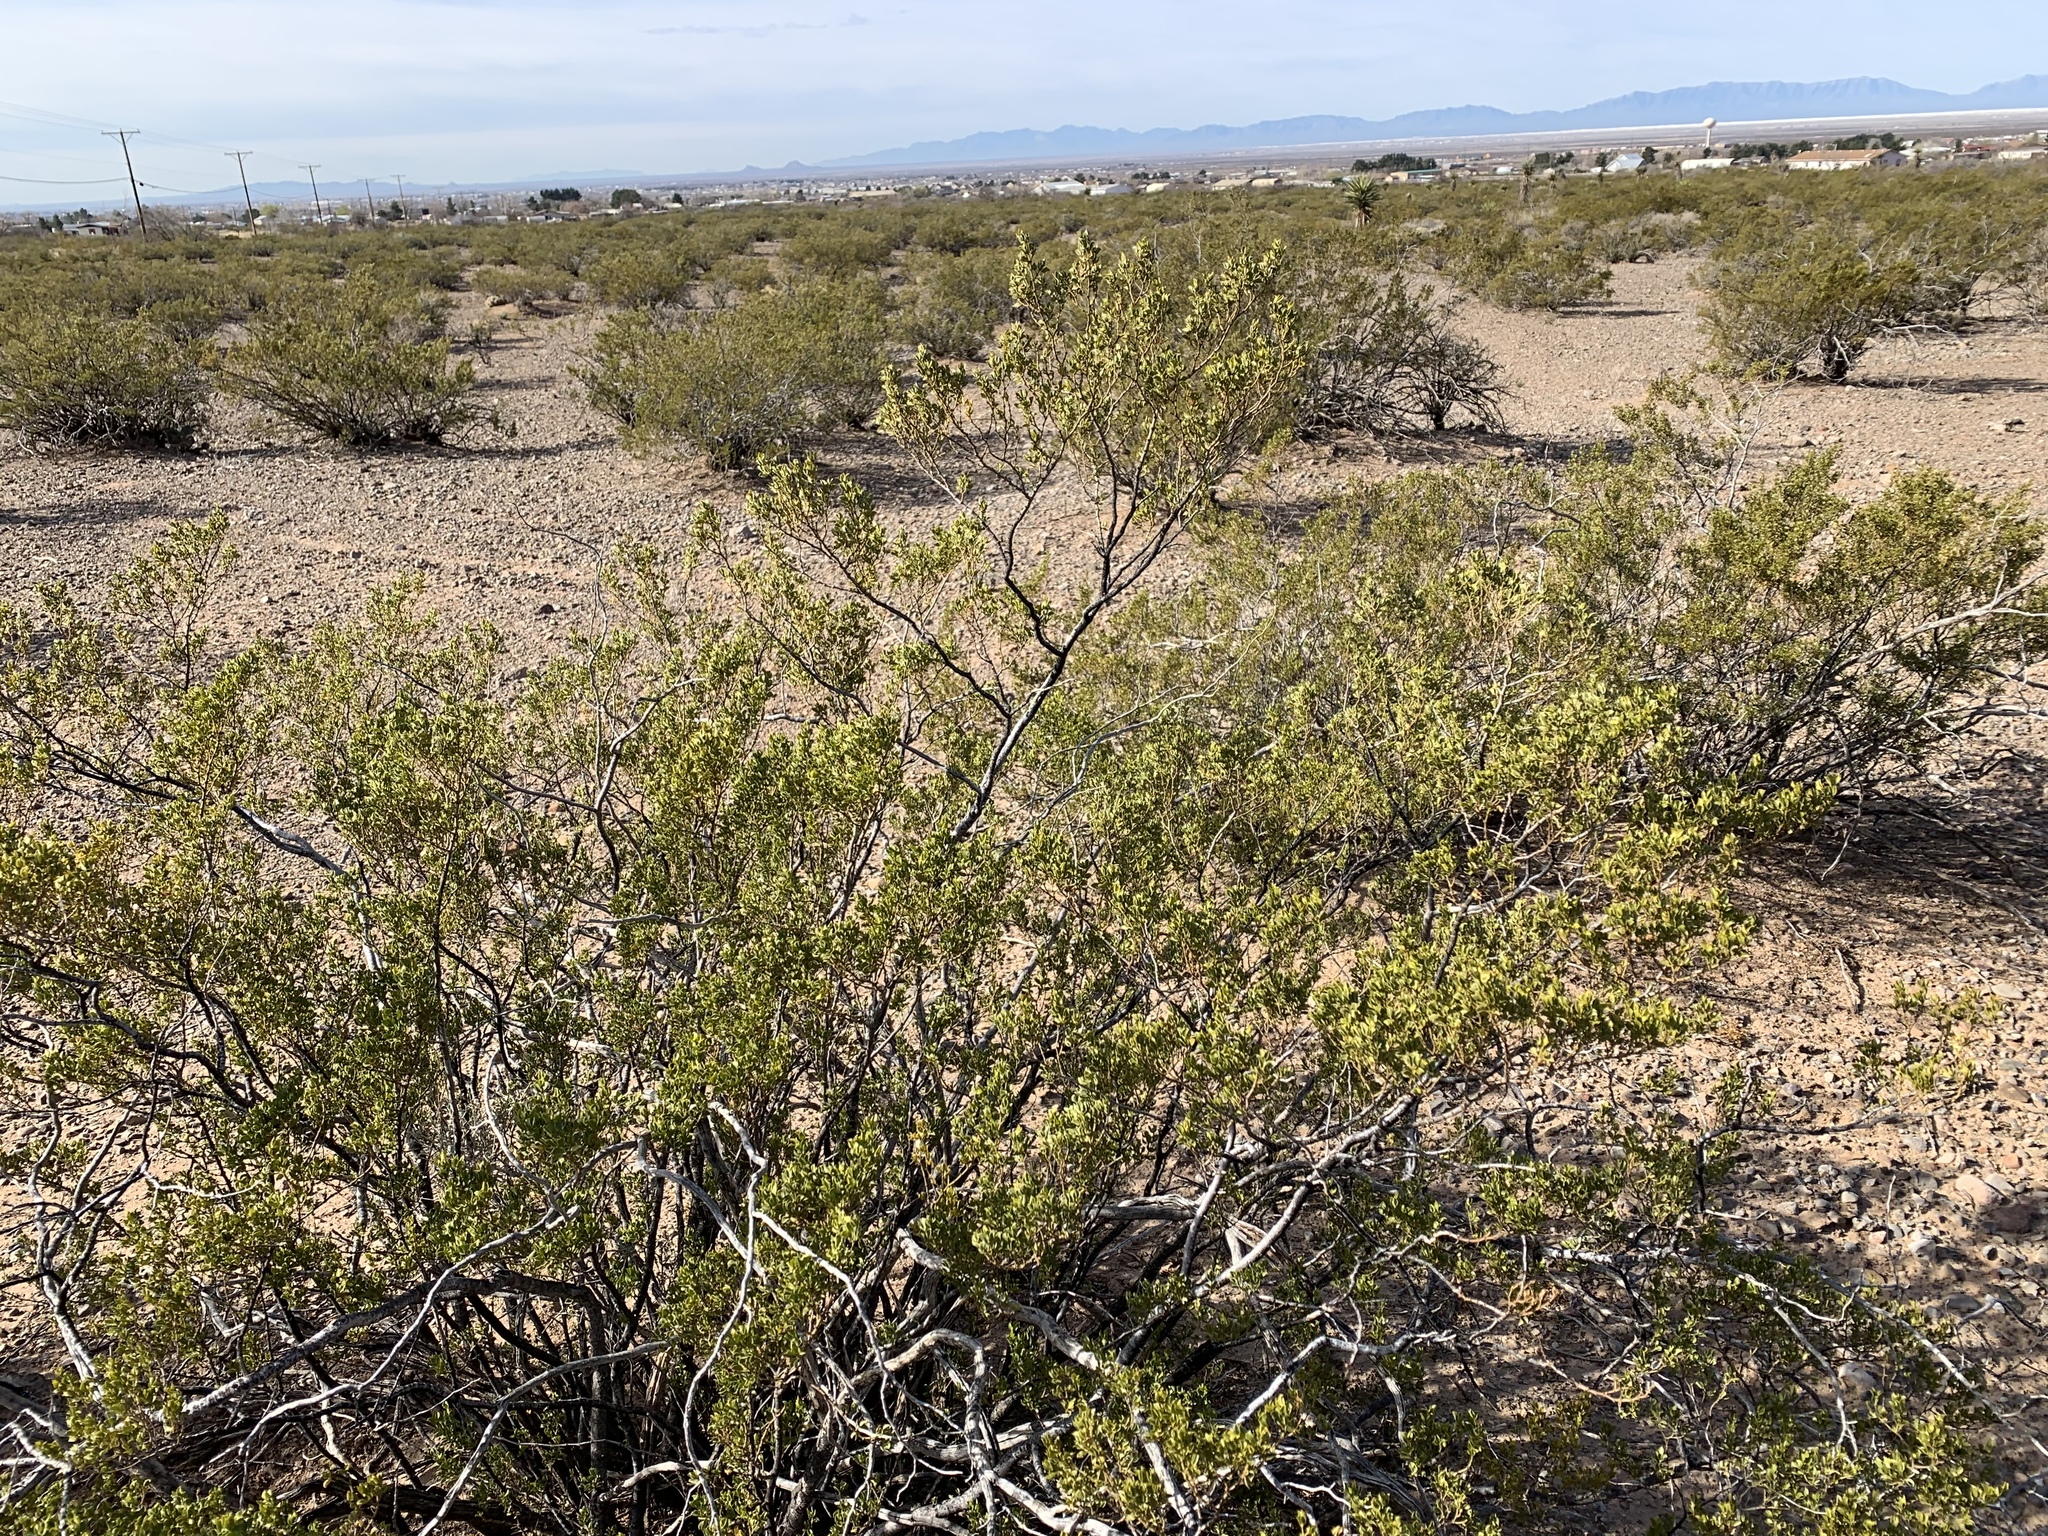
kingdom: Plantae
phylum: Tracheophyta
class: Magnoliopsida
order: Zygophyllales
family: Zygophyllaceae
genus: Larrea
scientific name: Larrea tridentata
